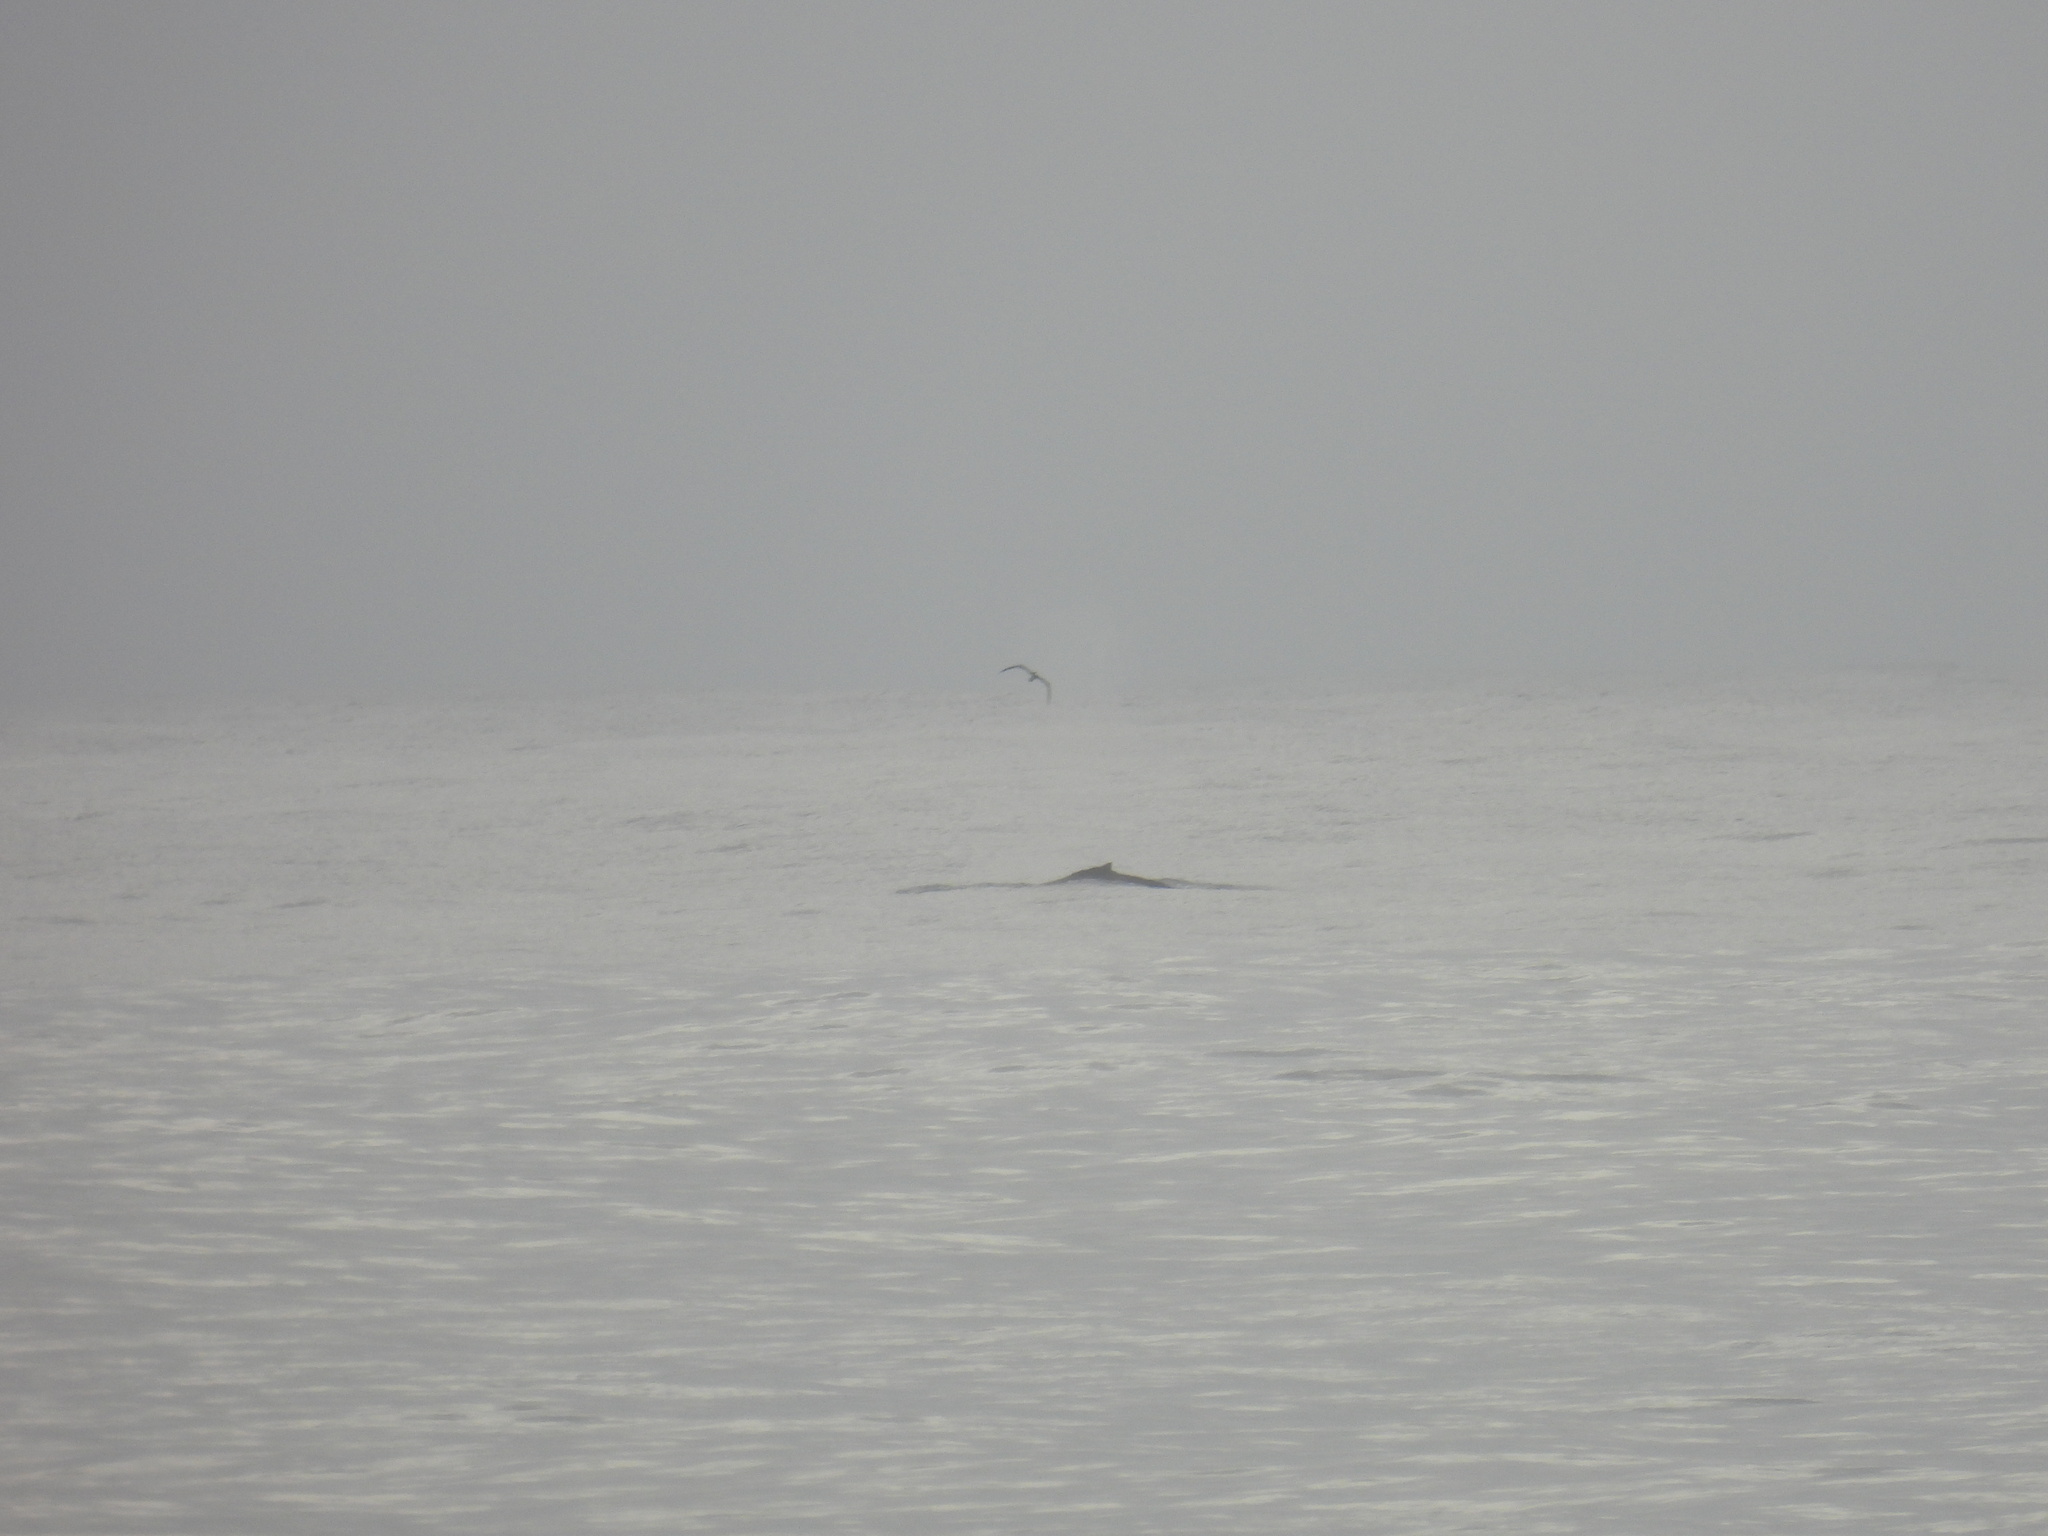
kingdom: Animalia
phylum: Chordata
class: Mammalia
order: Cetacea
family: Balaenopteridae
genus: Megaptera
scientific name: Megaptera novaeangliae
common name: Humpback whale
